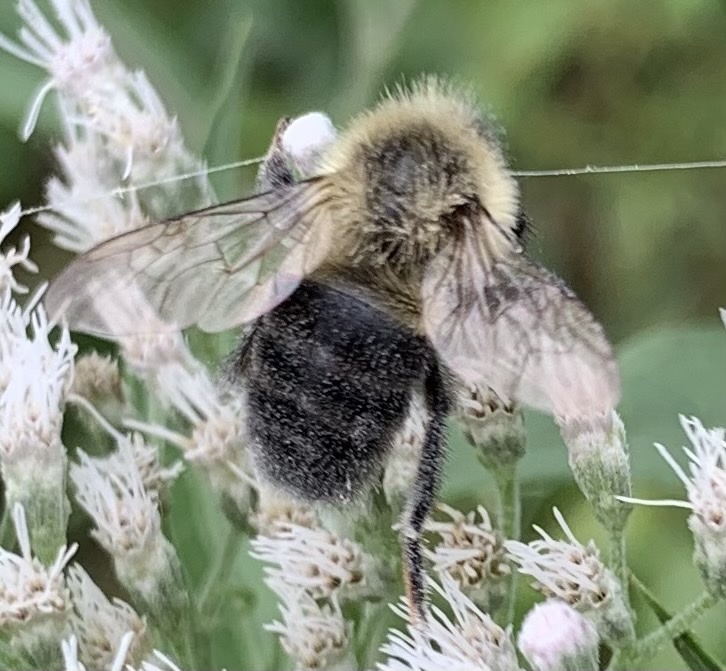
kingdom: Animalia
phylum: Arthropoda
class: Insecta
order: Hymenoptera
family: Apidae
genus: Bombus
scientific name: Bombus impatiens
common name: Common eastern bumble bee
